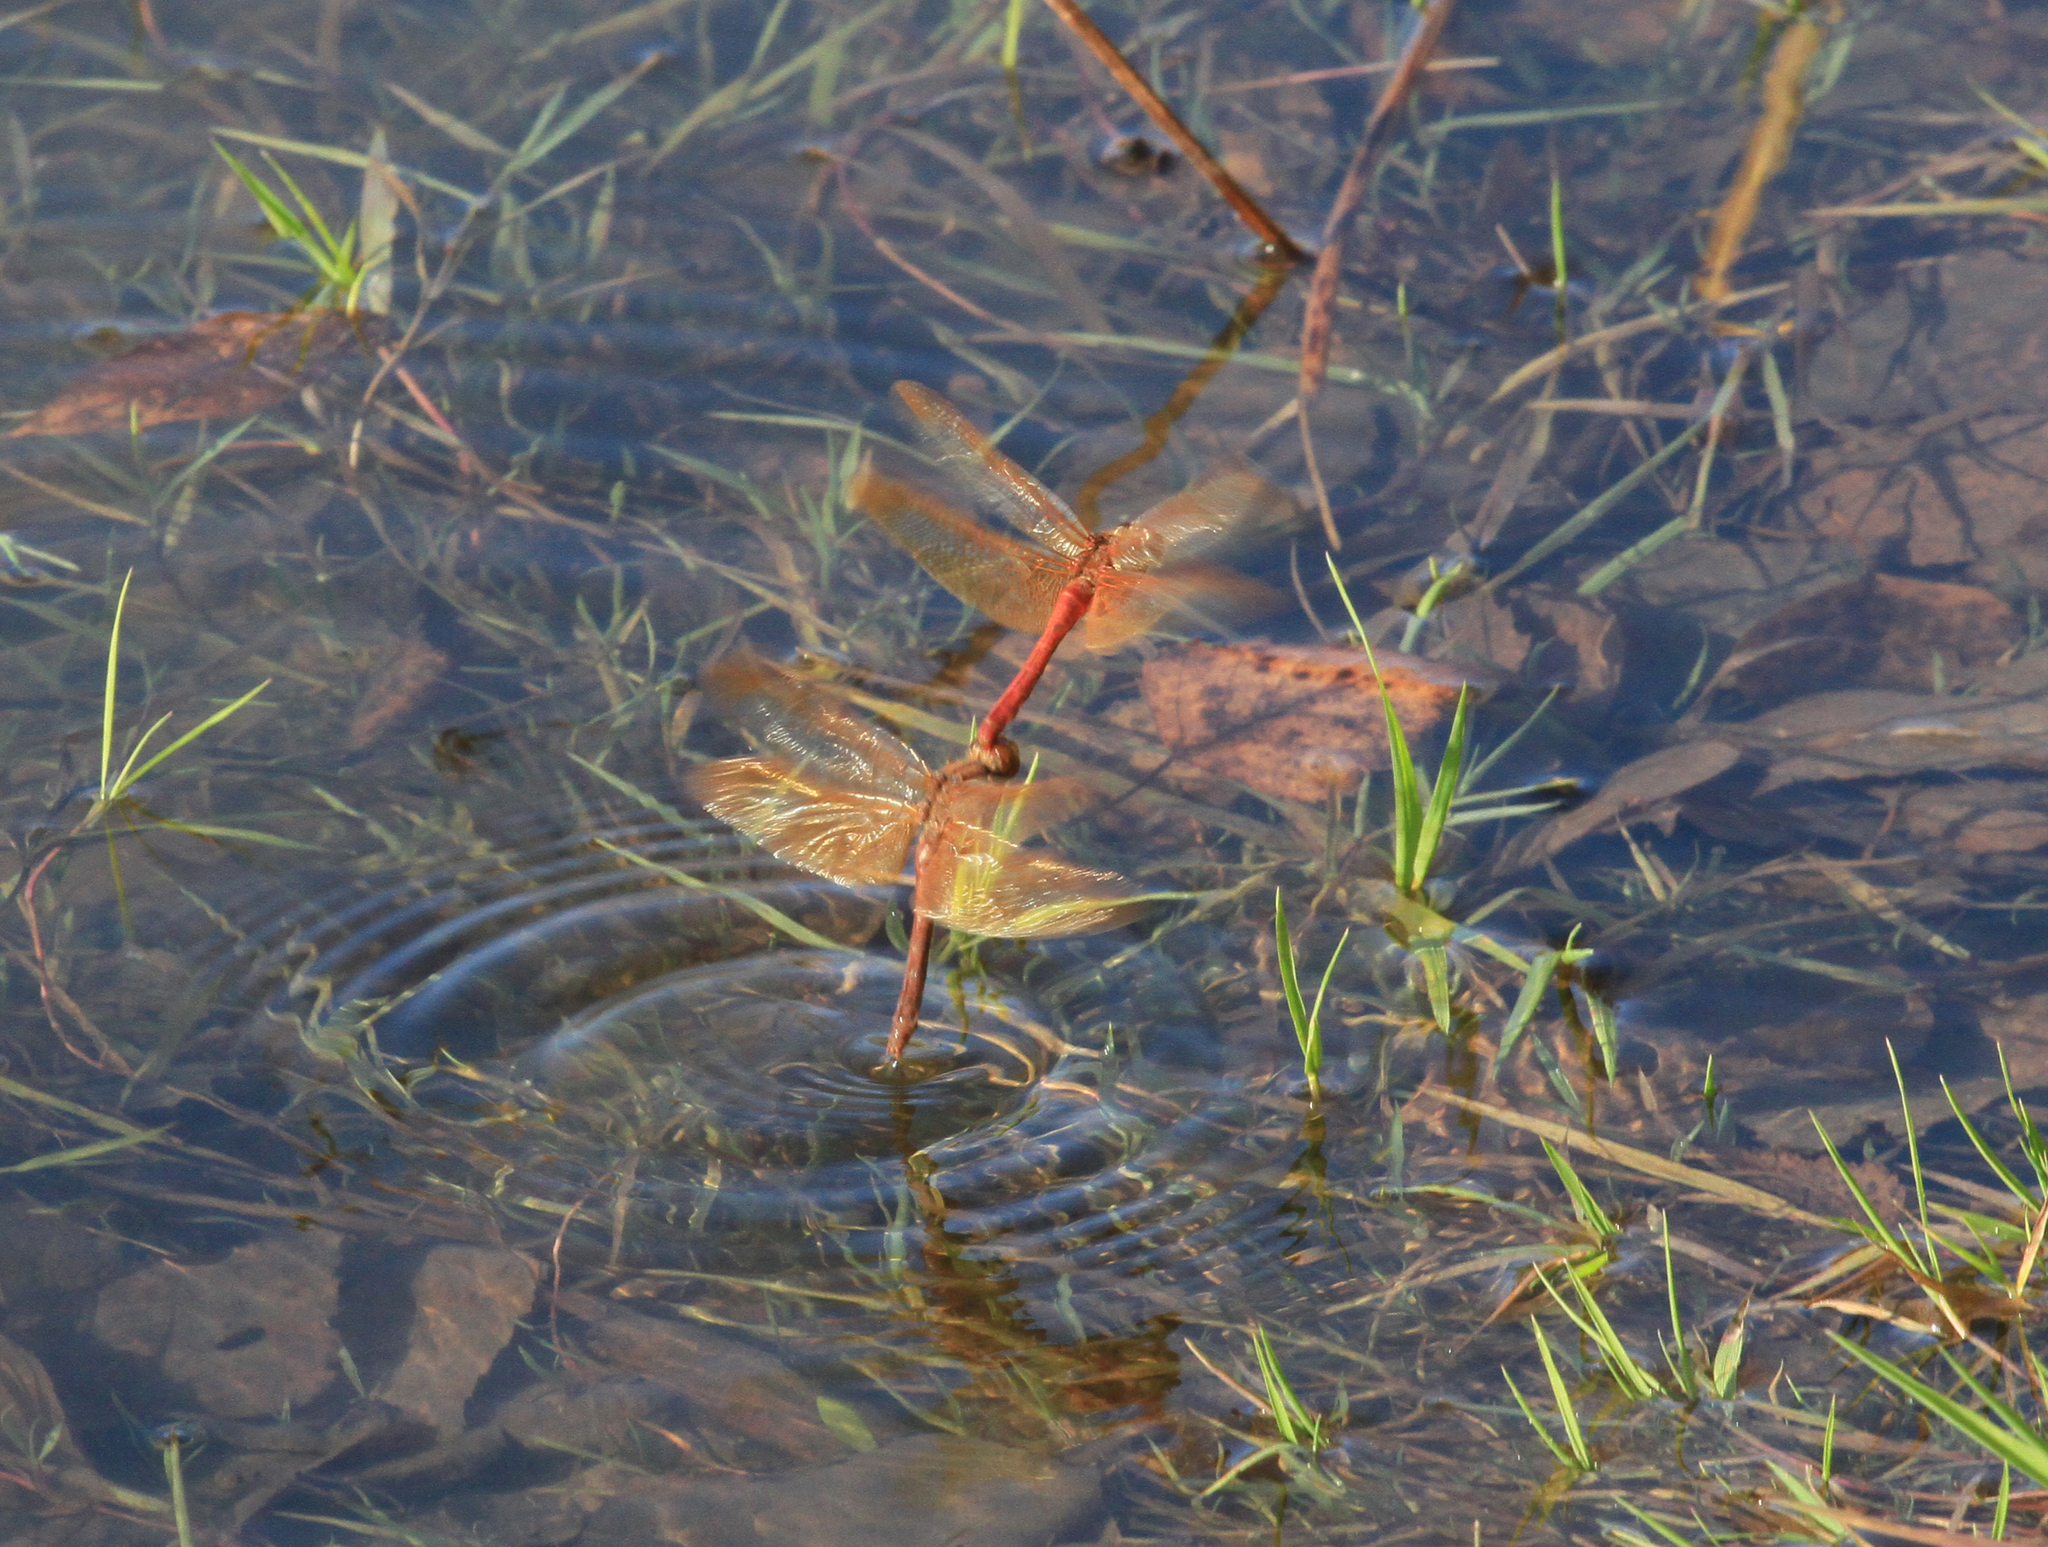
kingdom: Animalia
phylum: Arthropoda
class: Insecta
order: Odonata
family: Libellulidae
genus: Sympetrum
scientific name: Sympetrum croceolum
